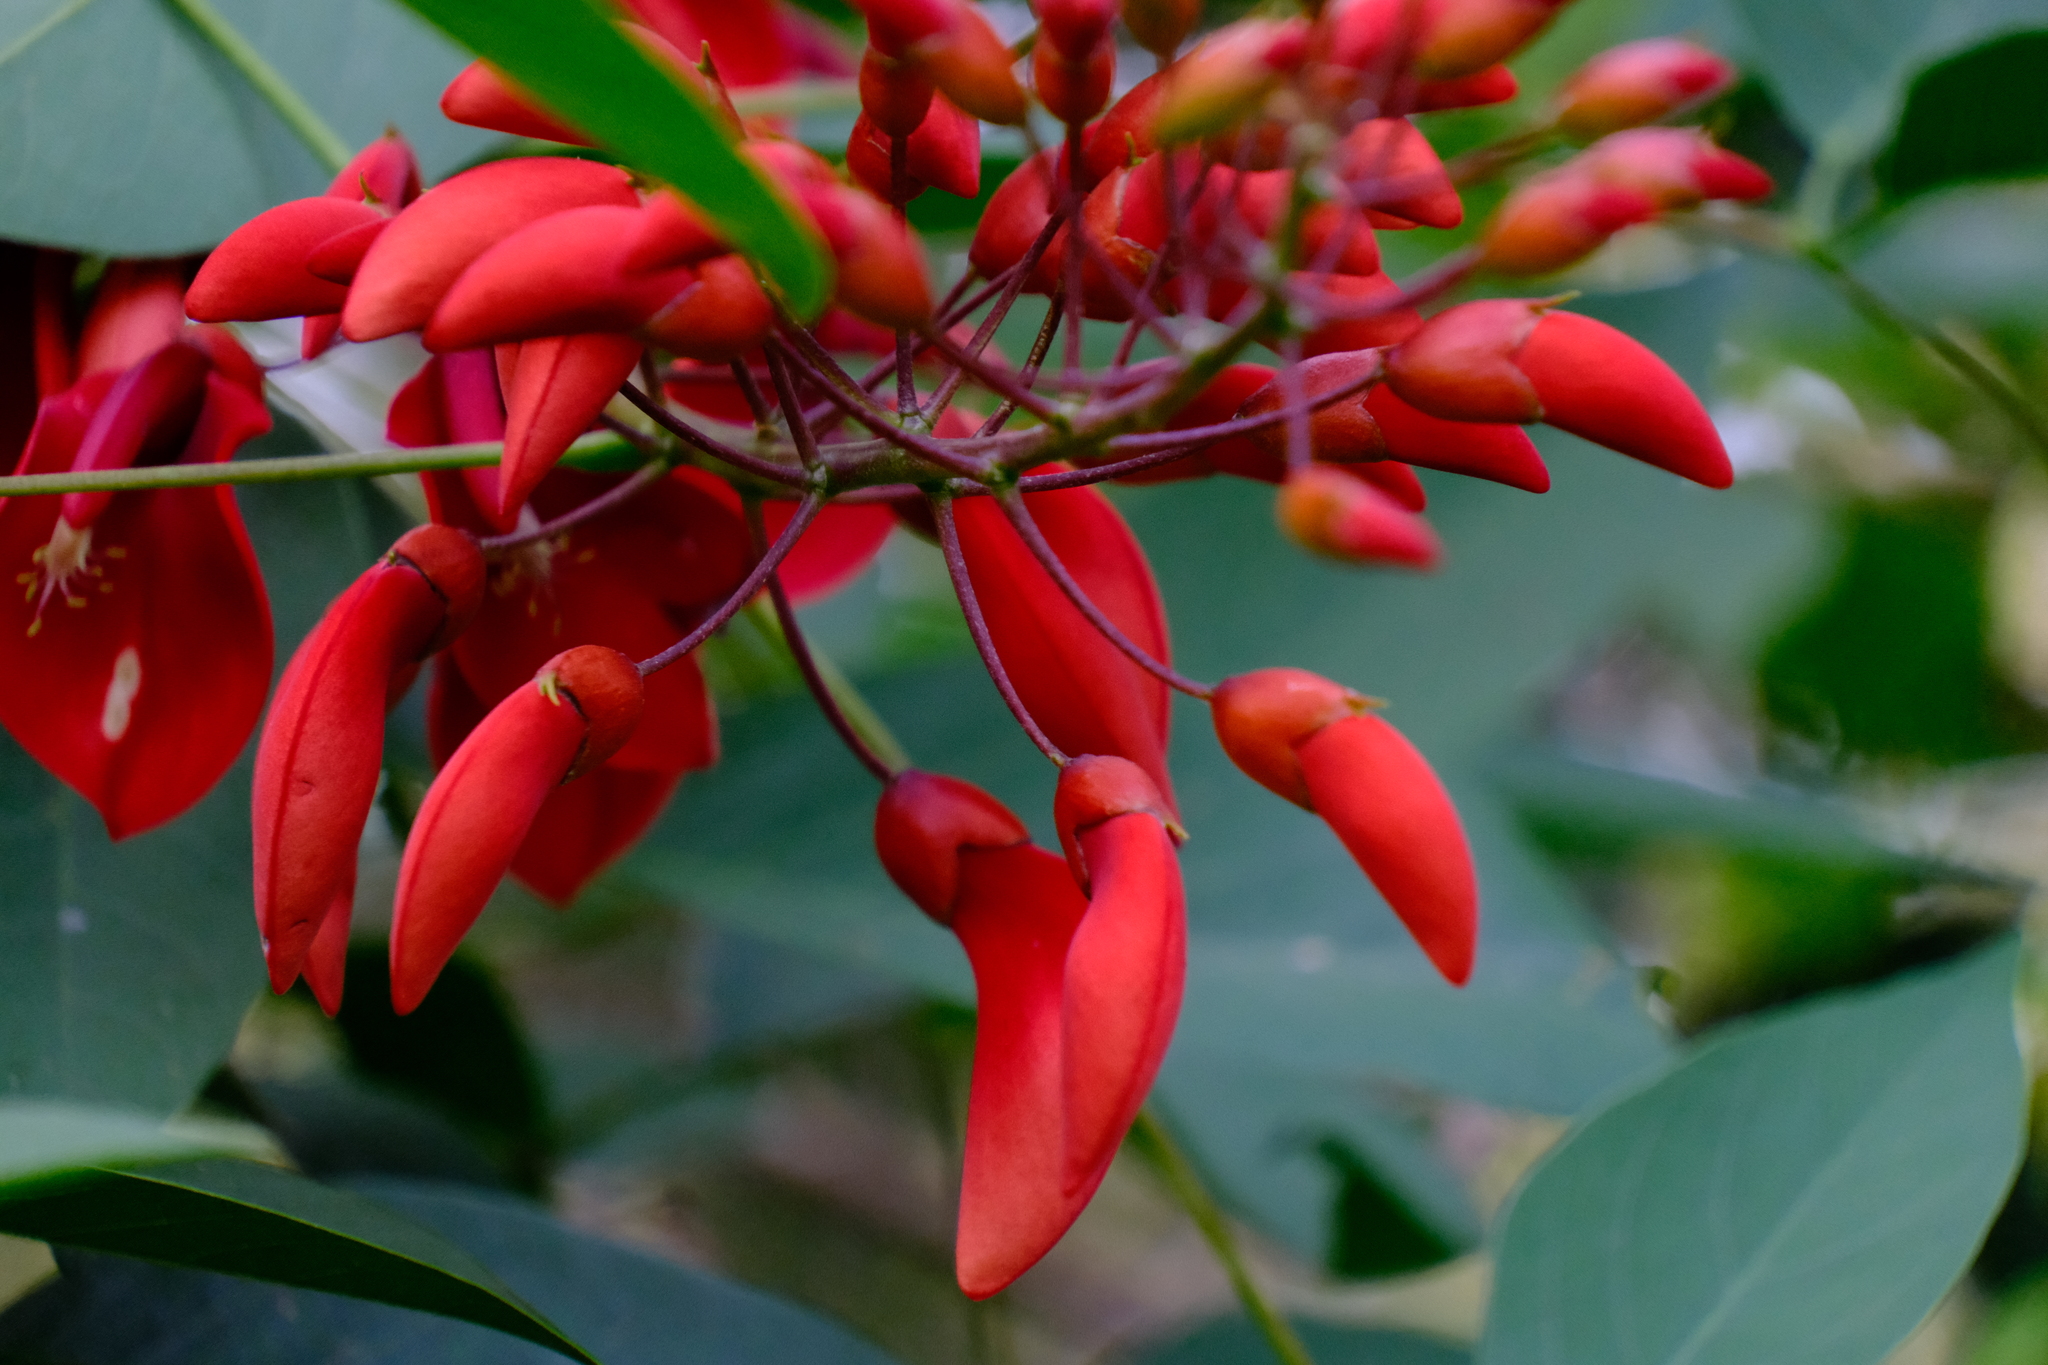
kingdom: Plantae
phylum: Tracheophyta
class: Magnoliopsida
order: Fabales
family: Fabaceae
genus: Erythrina
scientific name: Erythrina crista-galli
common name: Cockspur coral tree
